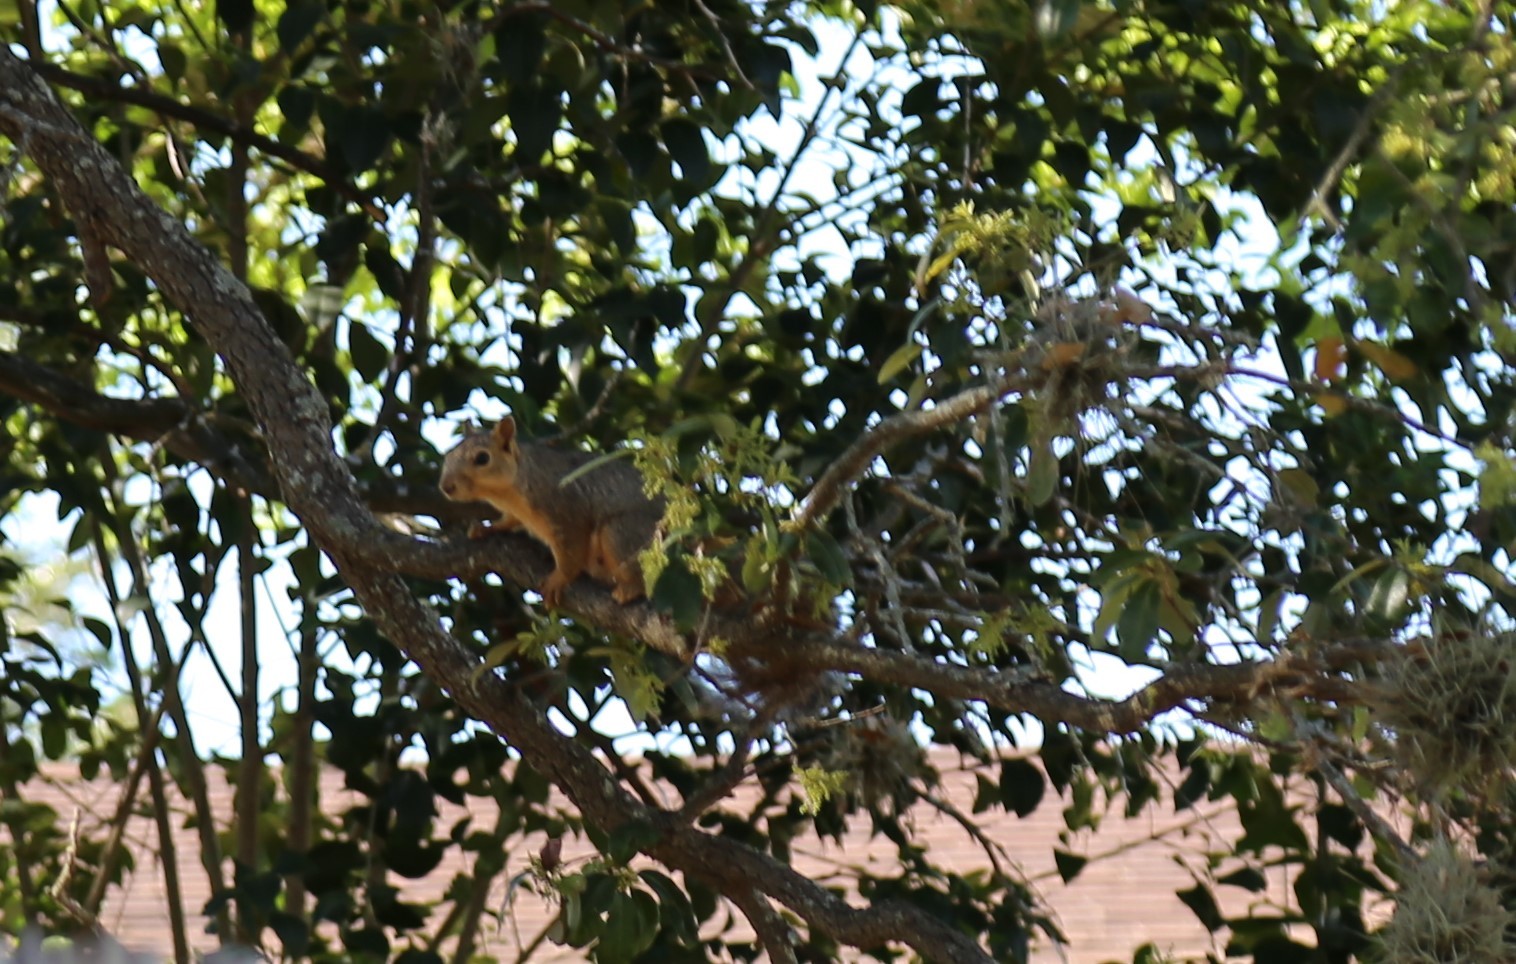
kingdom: Animalia
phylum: Chordata
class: Mammalia
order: Rodentia
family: Sciuridae
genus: Sciurus
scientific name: Sciurus niger
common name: Fox squirrel
